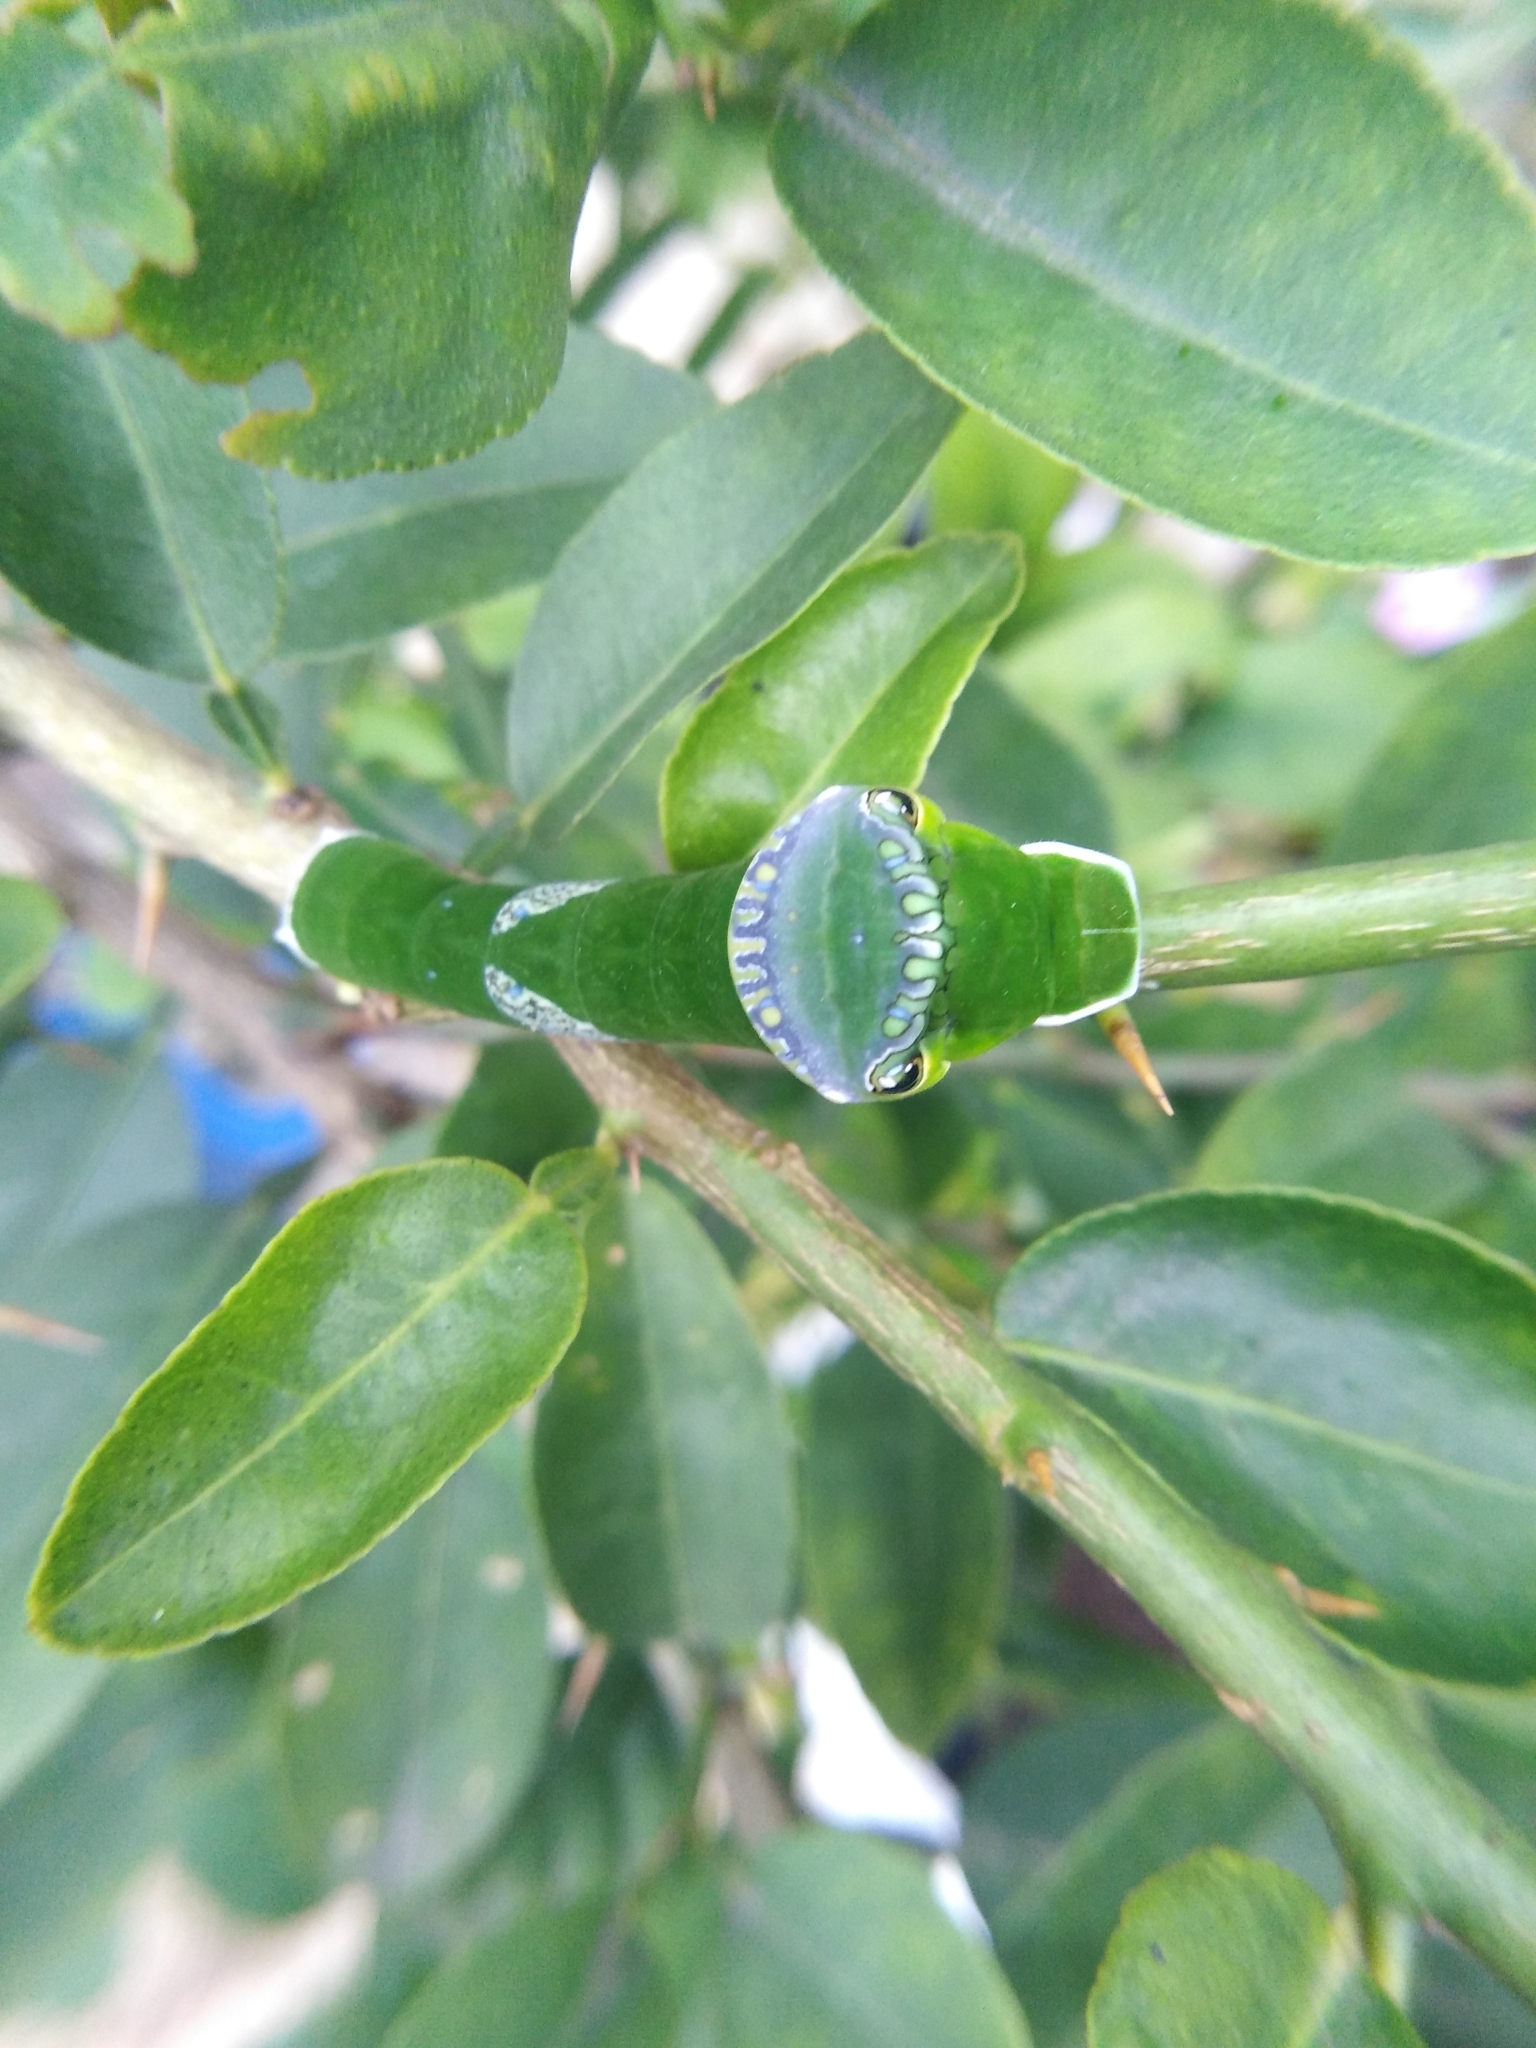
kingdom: Animalia
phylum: Arthropoda
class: Insecta
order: Lepidoptera
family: Papilionidae
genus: Papilio
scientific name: Papilio memnon
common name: Great mormon
